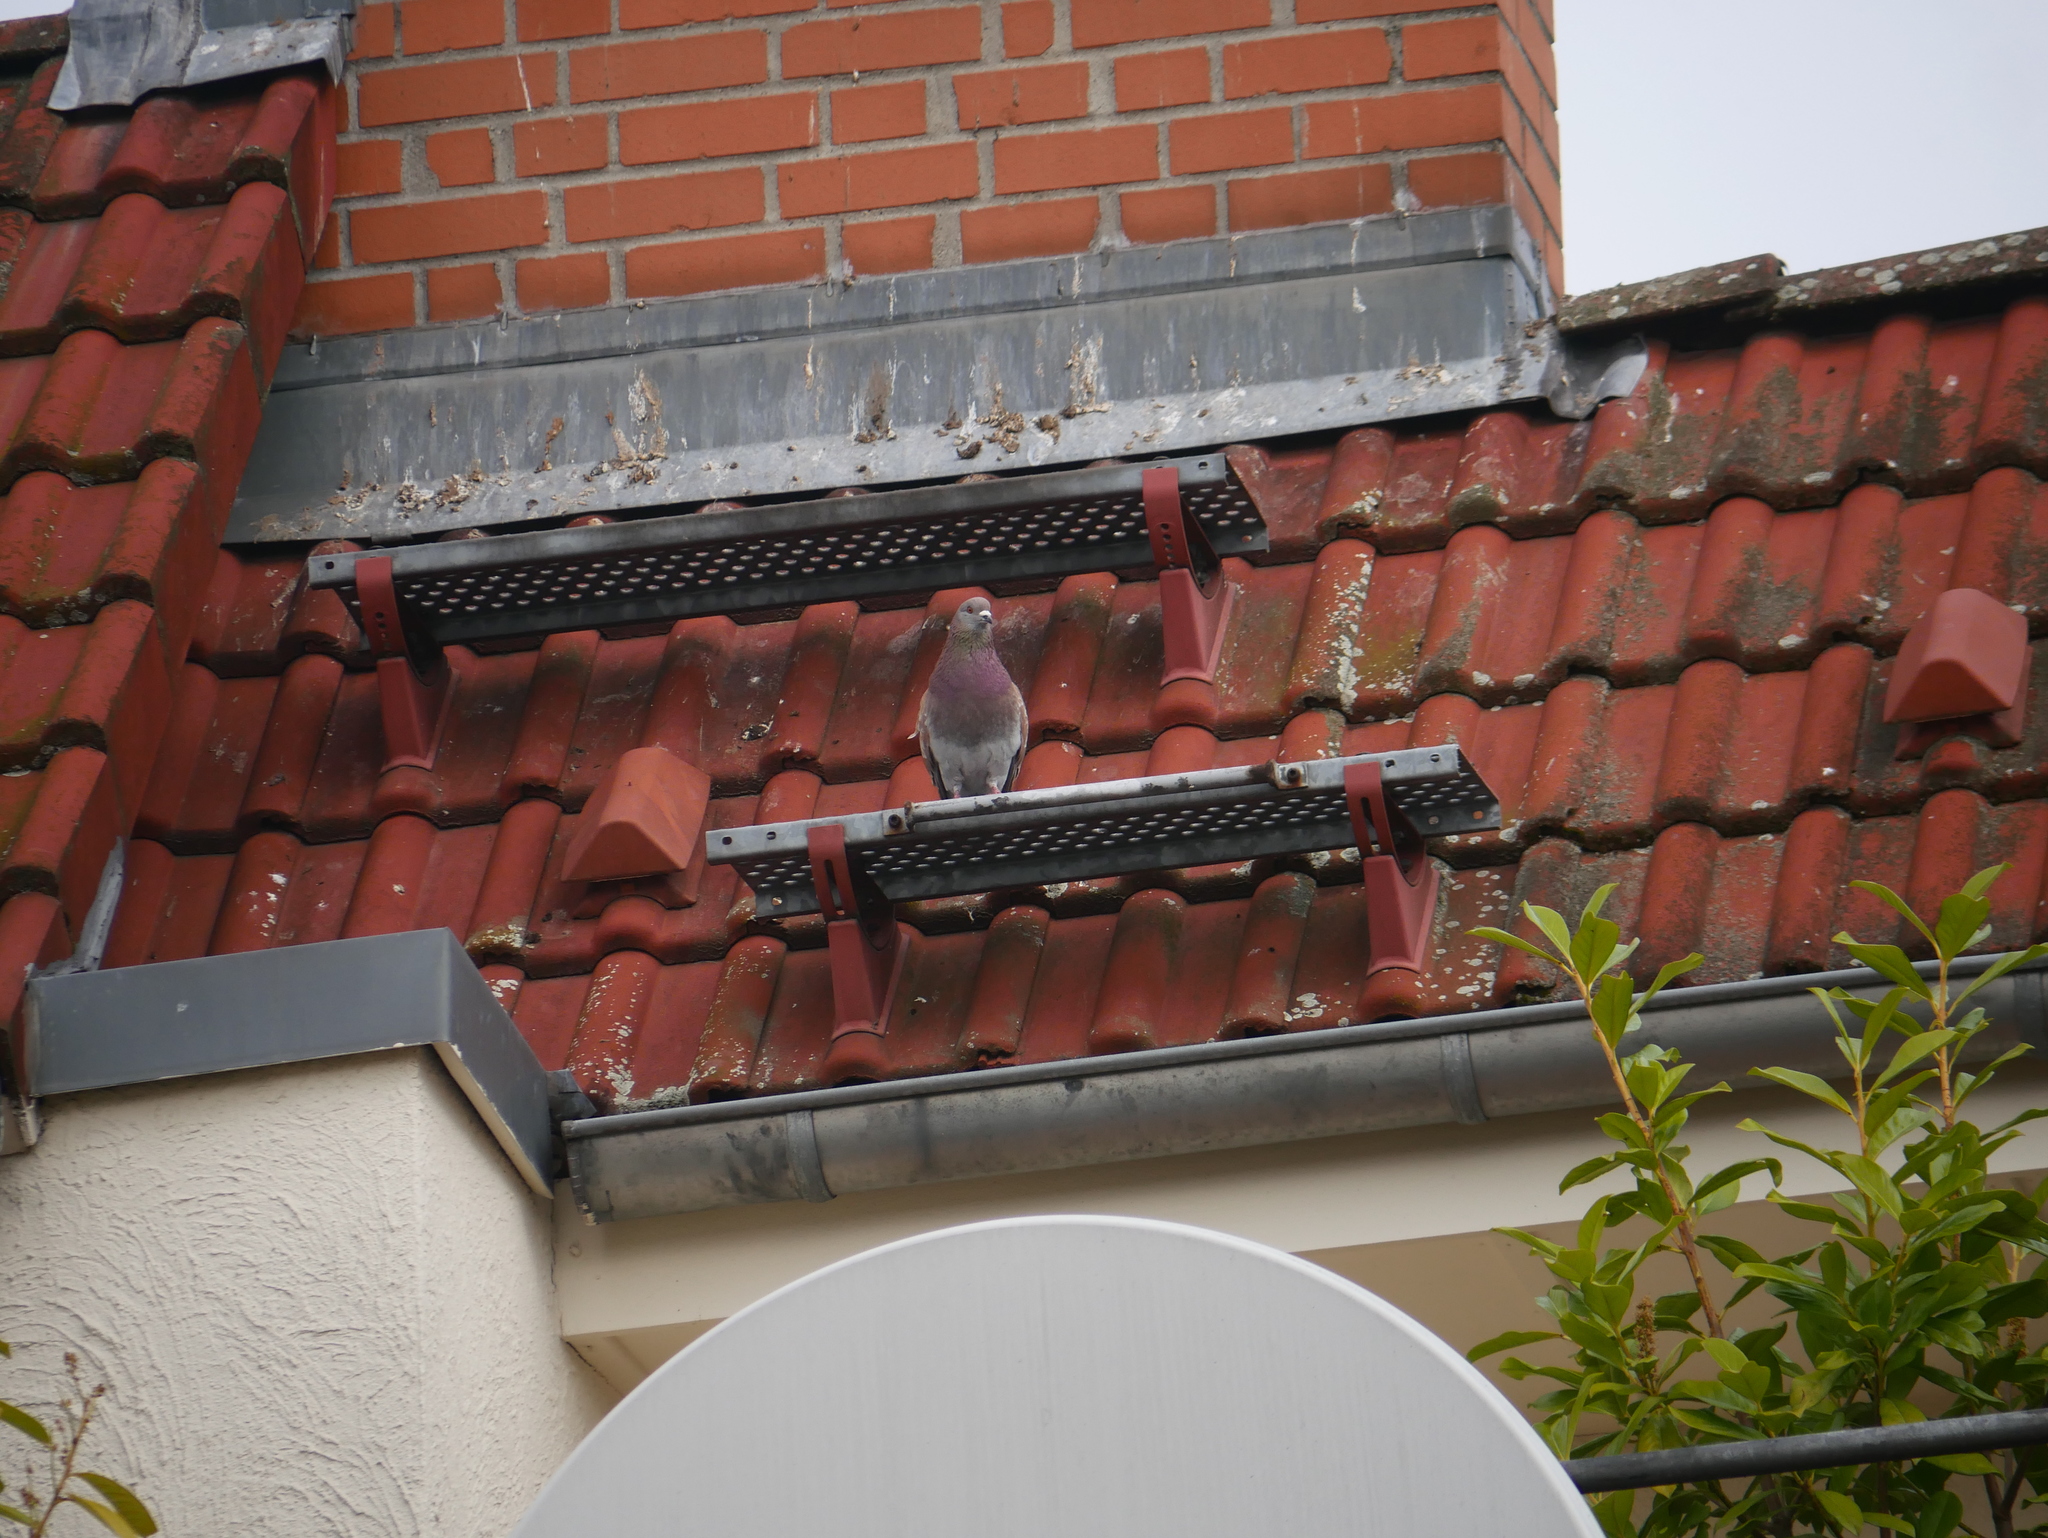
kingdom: Animalia
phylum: Chordata
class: Aves
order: Columbiformes
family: Columbidae
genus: Columba
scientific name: Columba livia
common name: Rock pigeon
